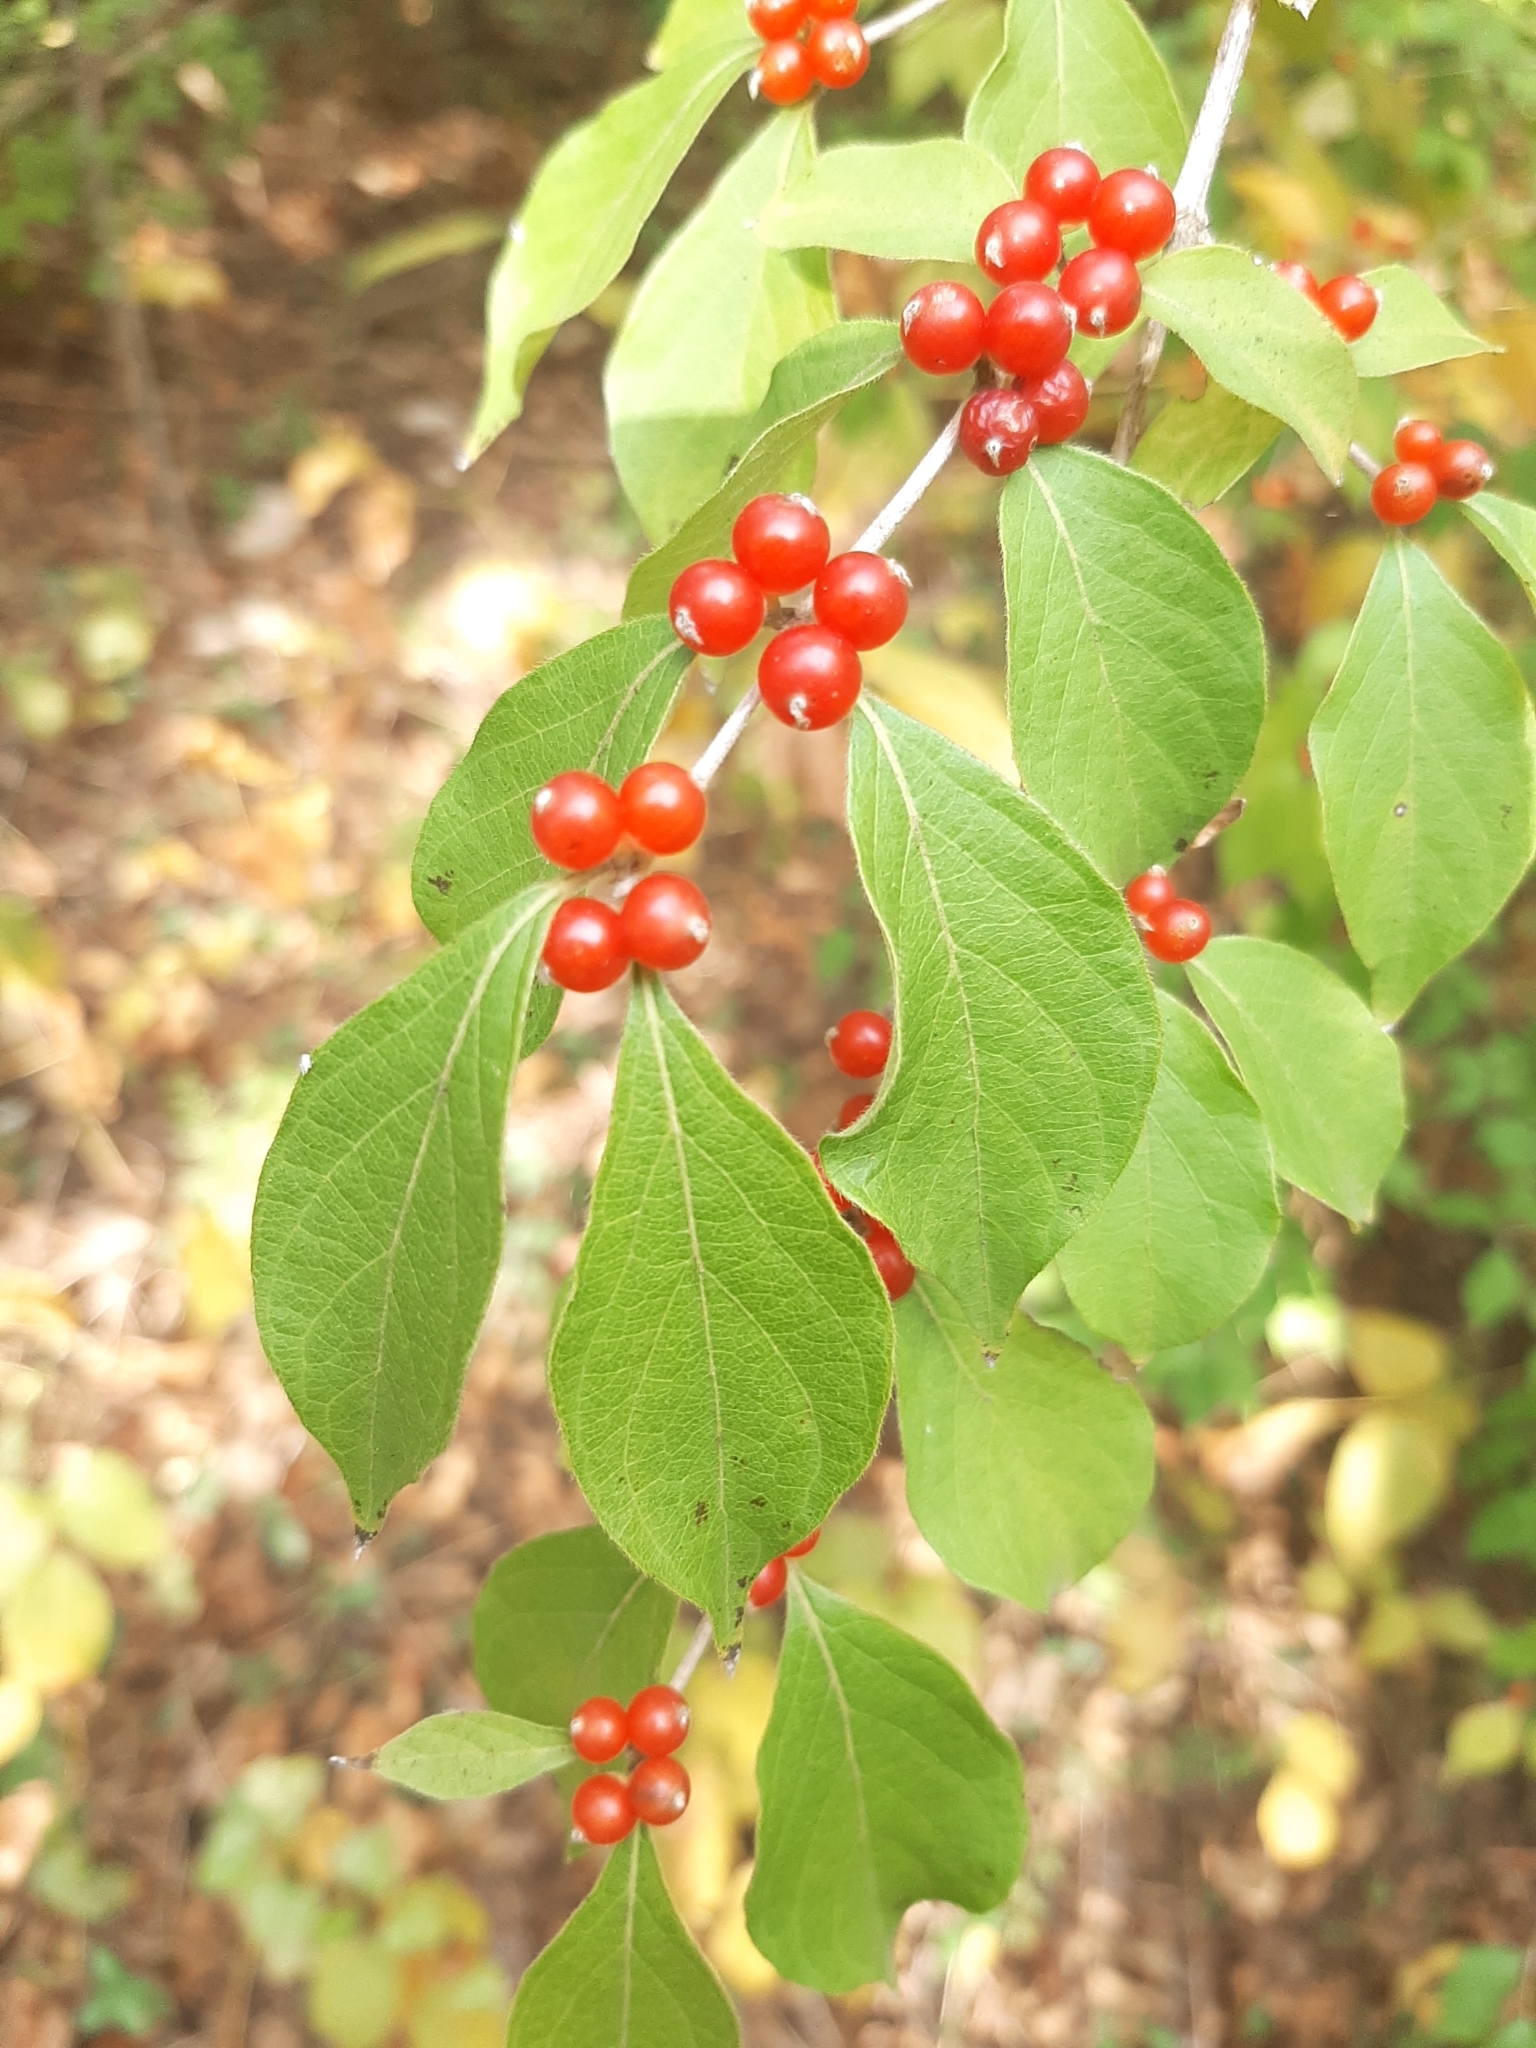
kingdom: Plantae
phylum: Tracheophyta
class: Magnoliopsida
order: Dipsacales
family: Caprifoliaceae
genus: Lonicera
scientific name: Lonicera maackii
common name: Amur honeysuckle
